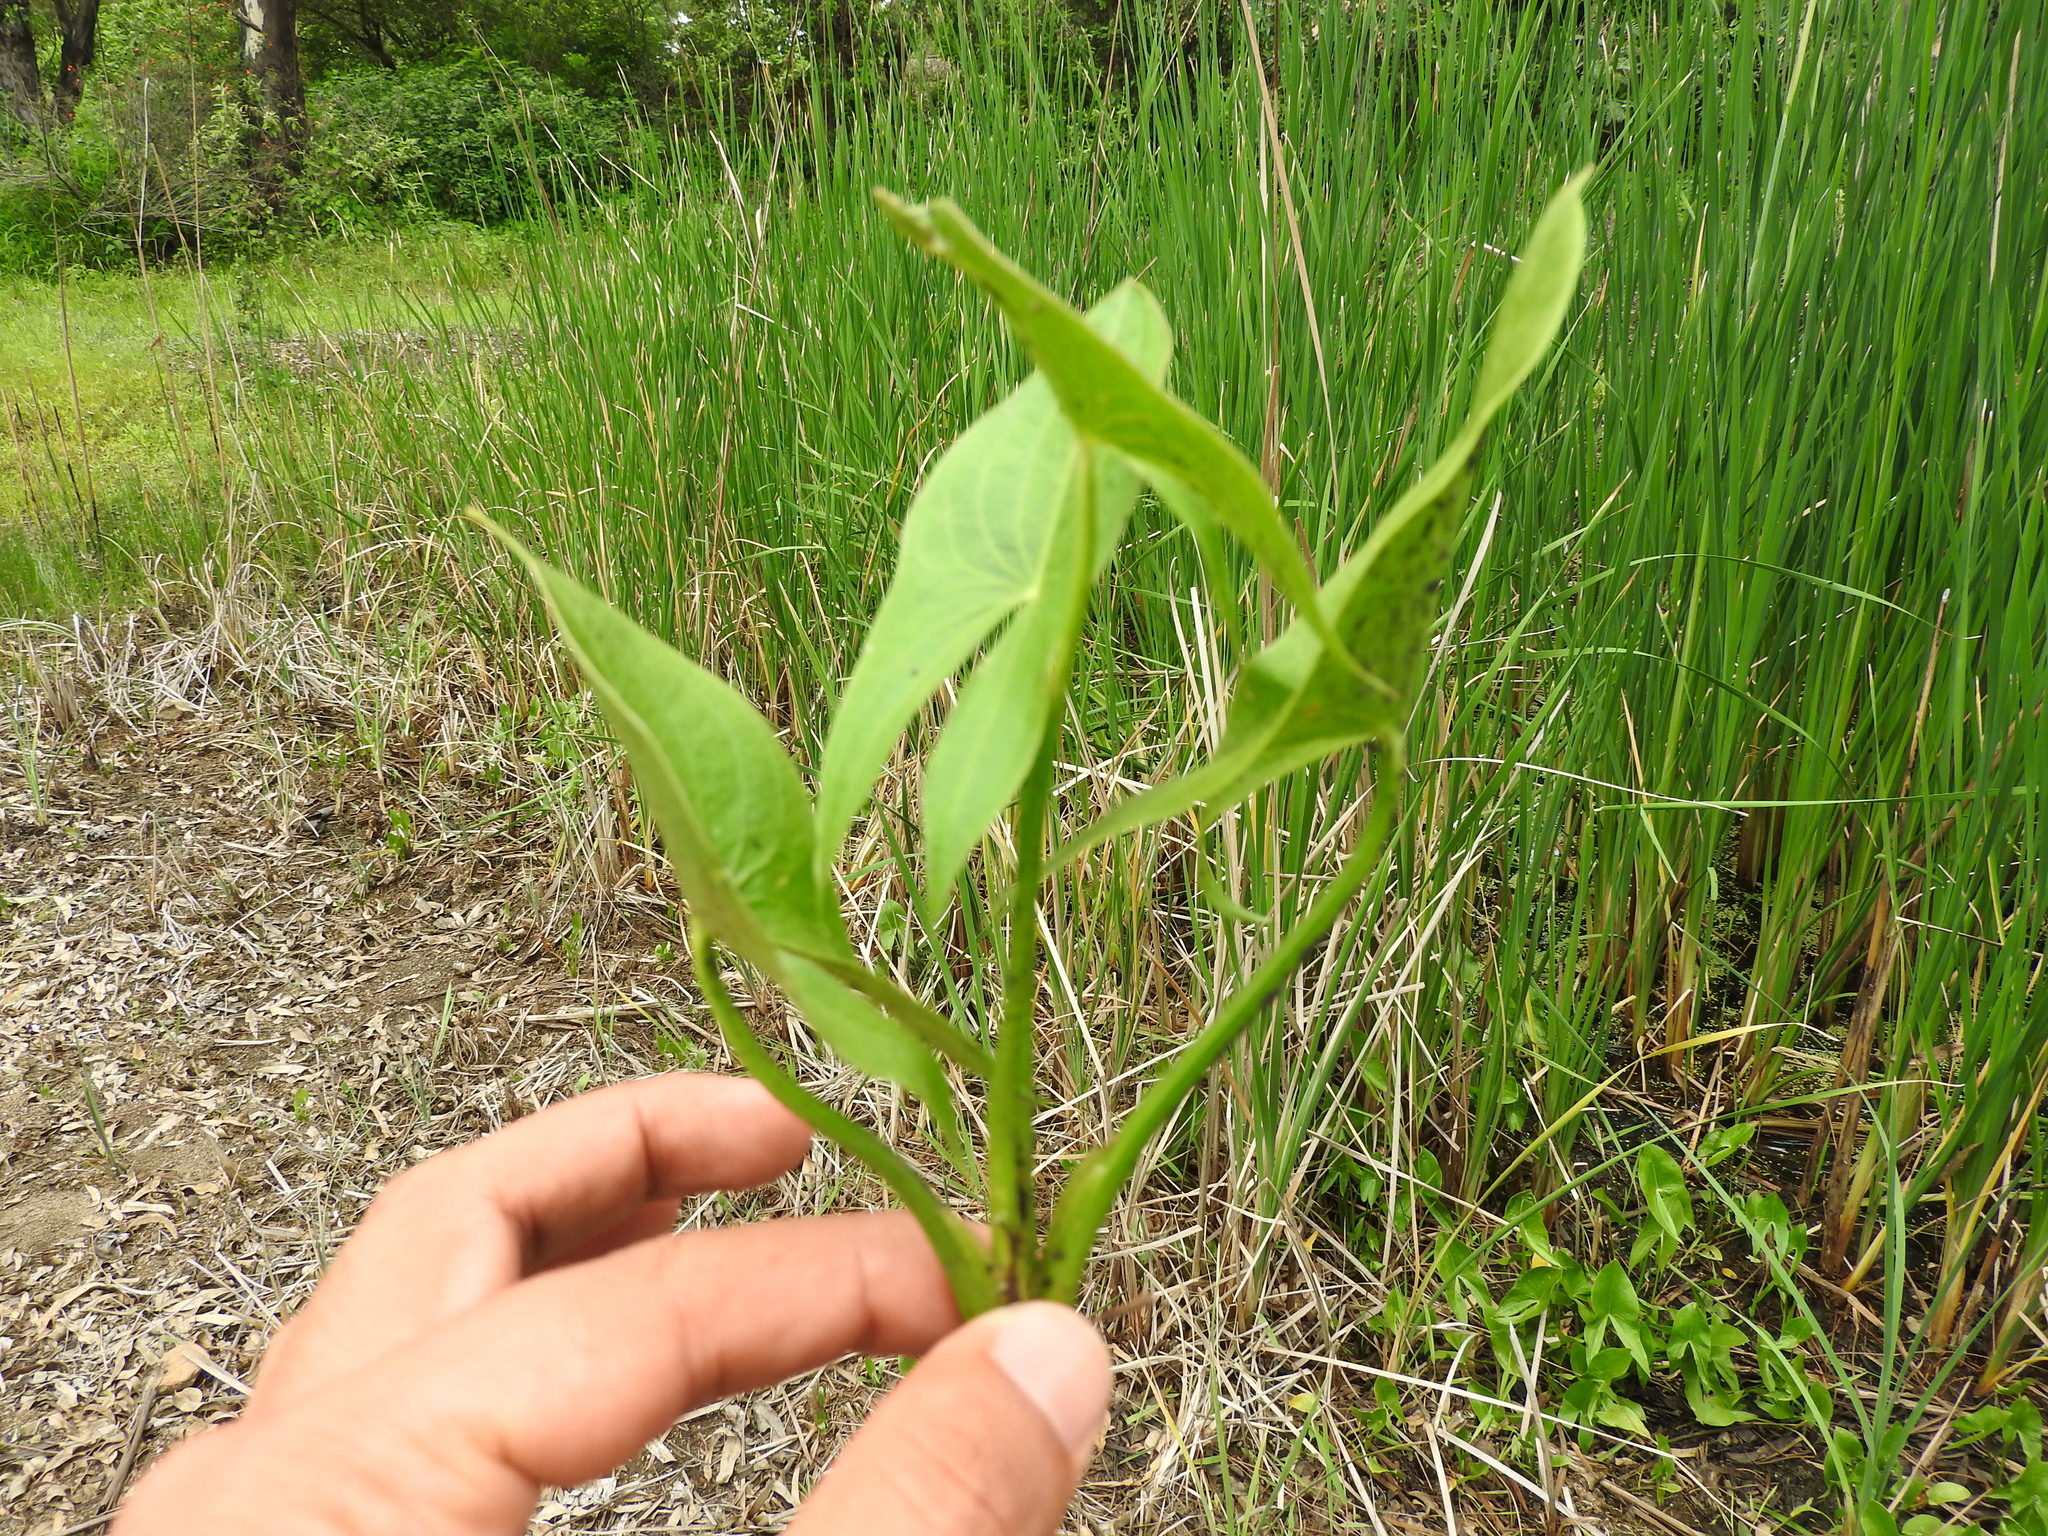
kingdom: Plantae
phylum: Tracheophyta
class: Liliopsida
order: Alismatales
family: Alismataceae
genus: Sagittaria
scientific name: Sagittaria latifolia
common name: Duck-potato
